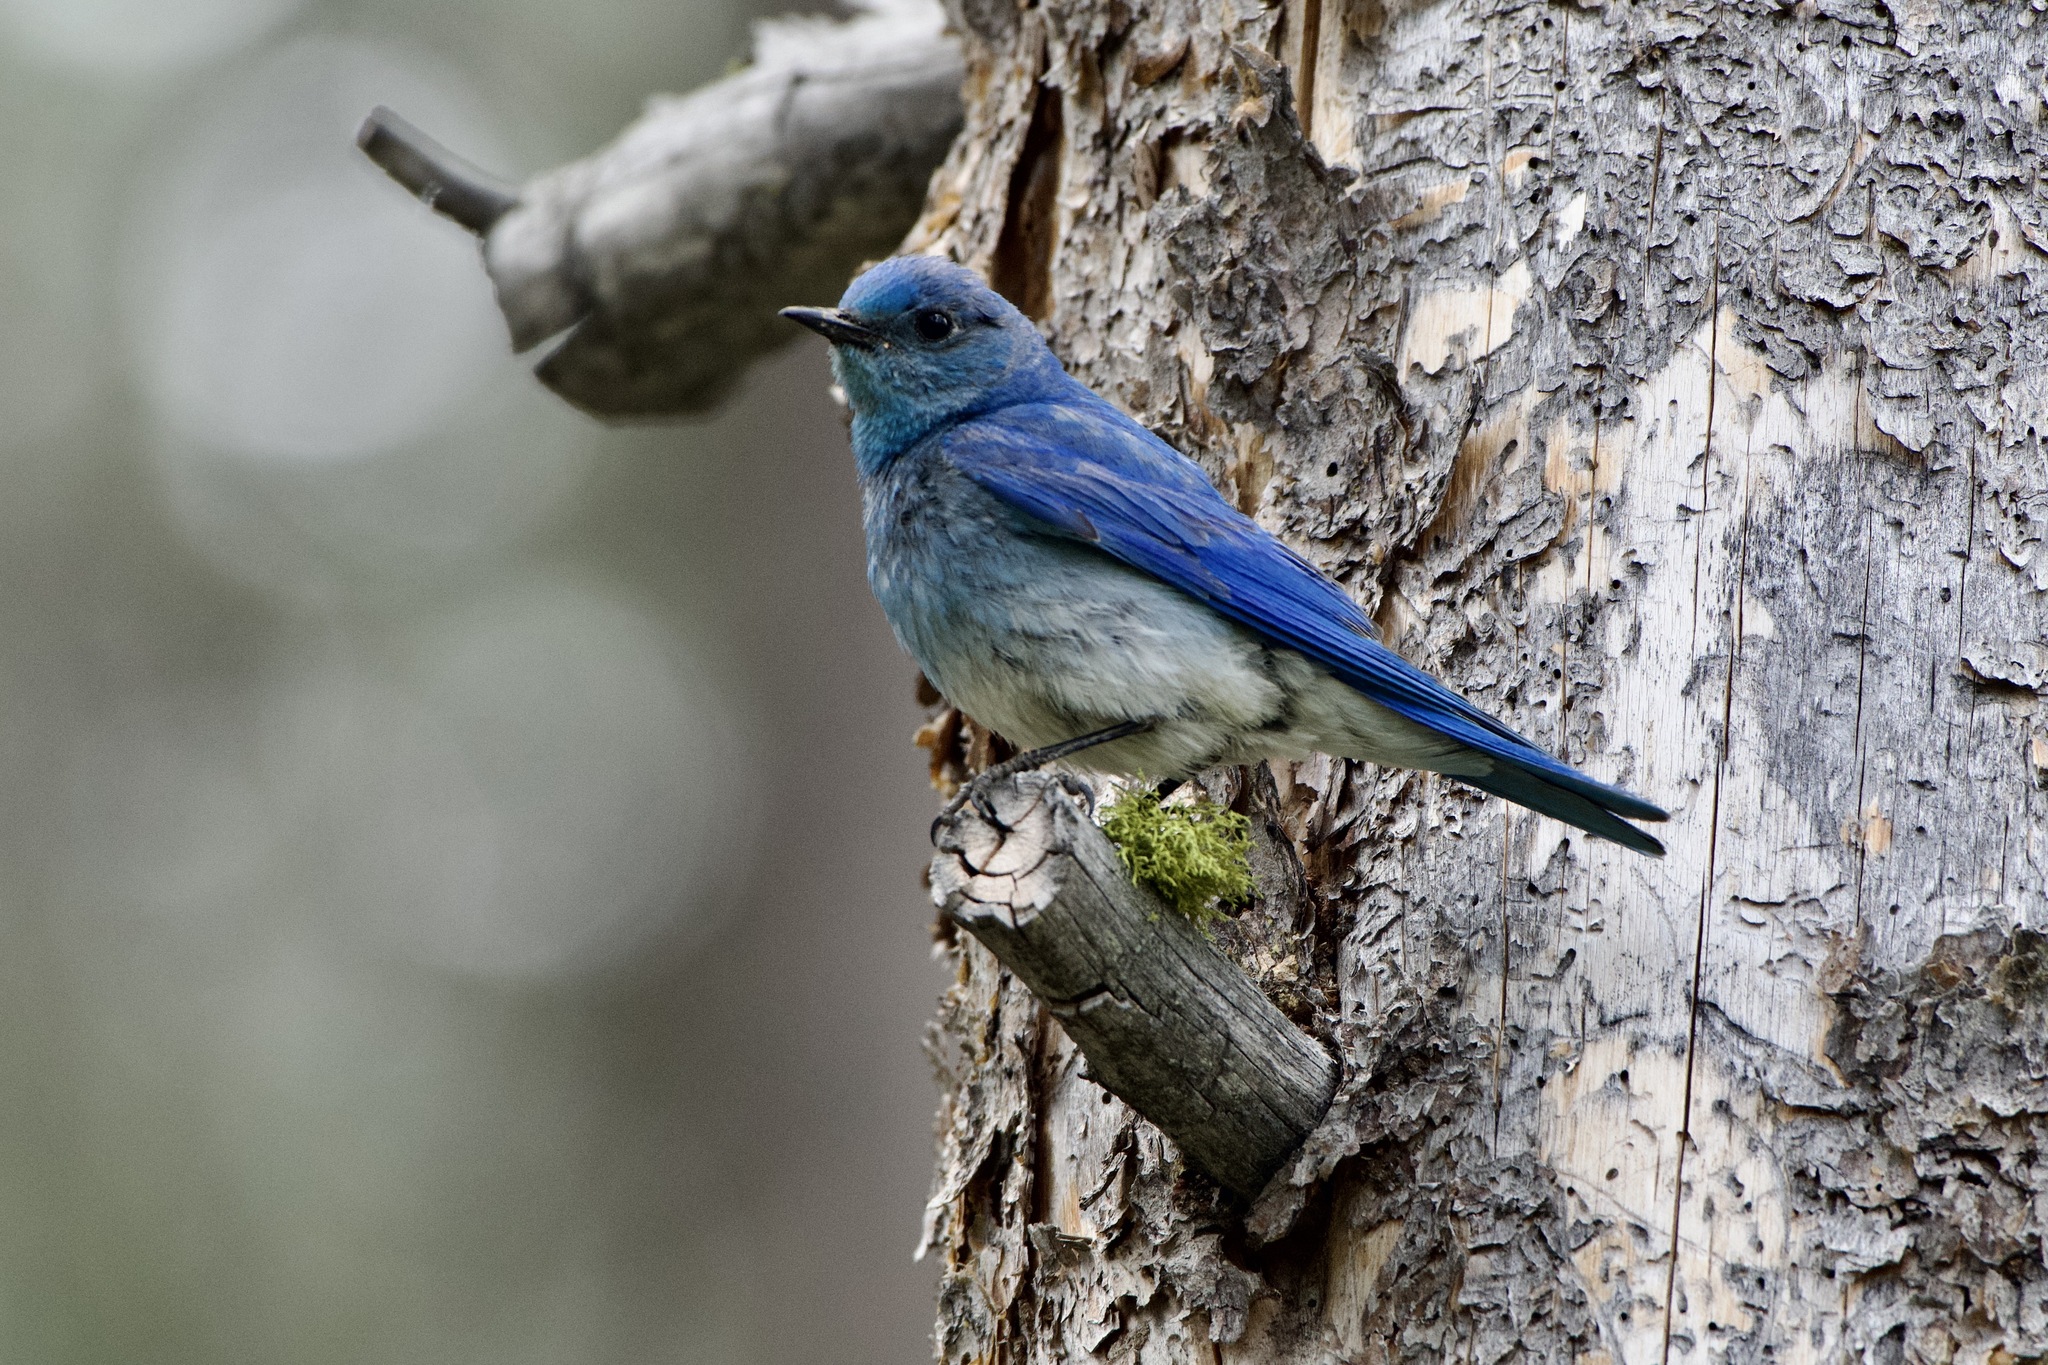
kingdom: Animalia
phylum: Chordata
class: Aves
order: Passeriformes
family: Turdidae
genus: Sialia
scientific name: Sialia currucoides
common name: Mountain bluebird
